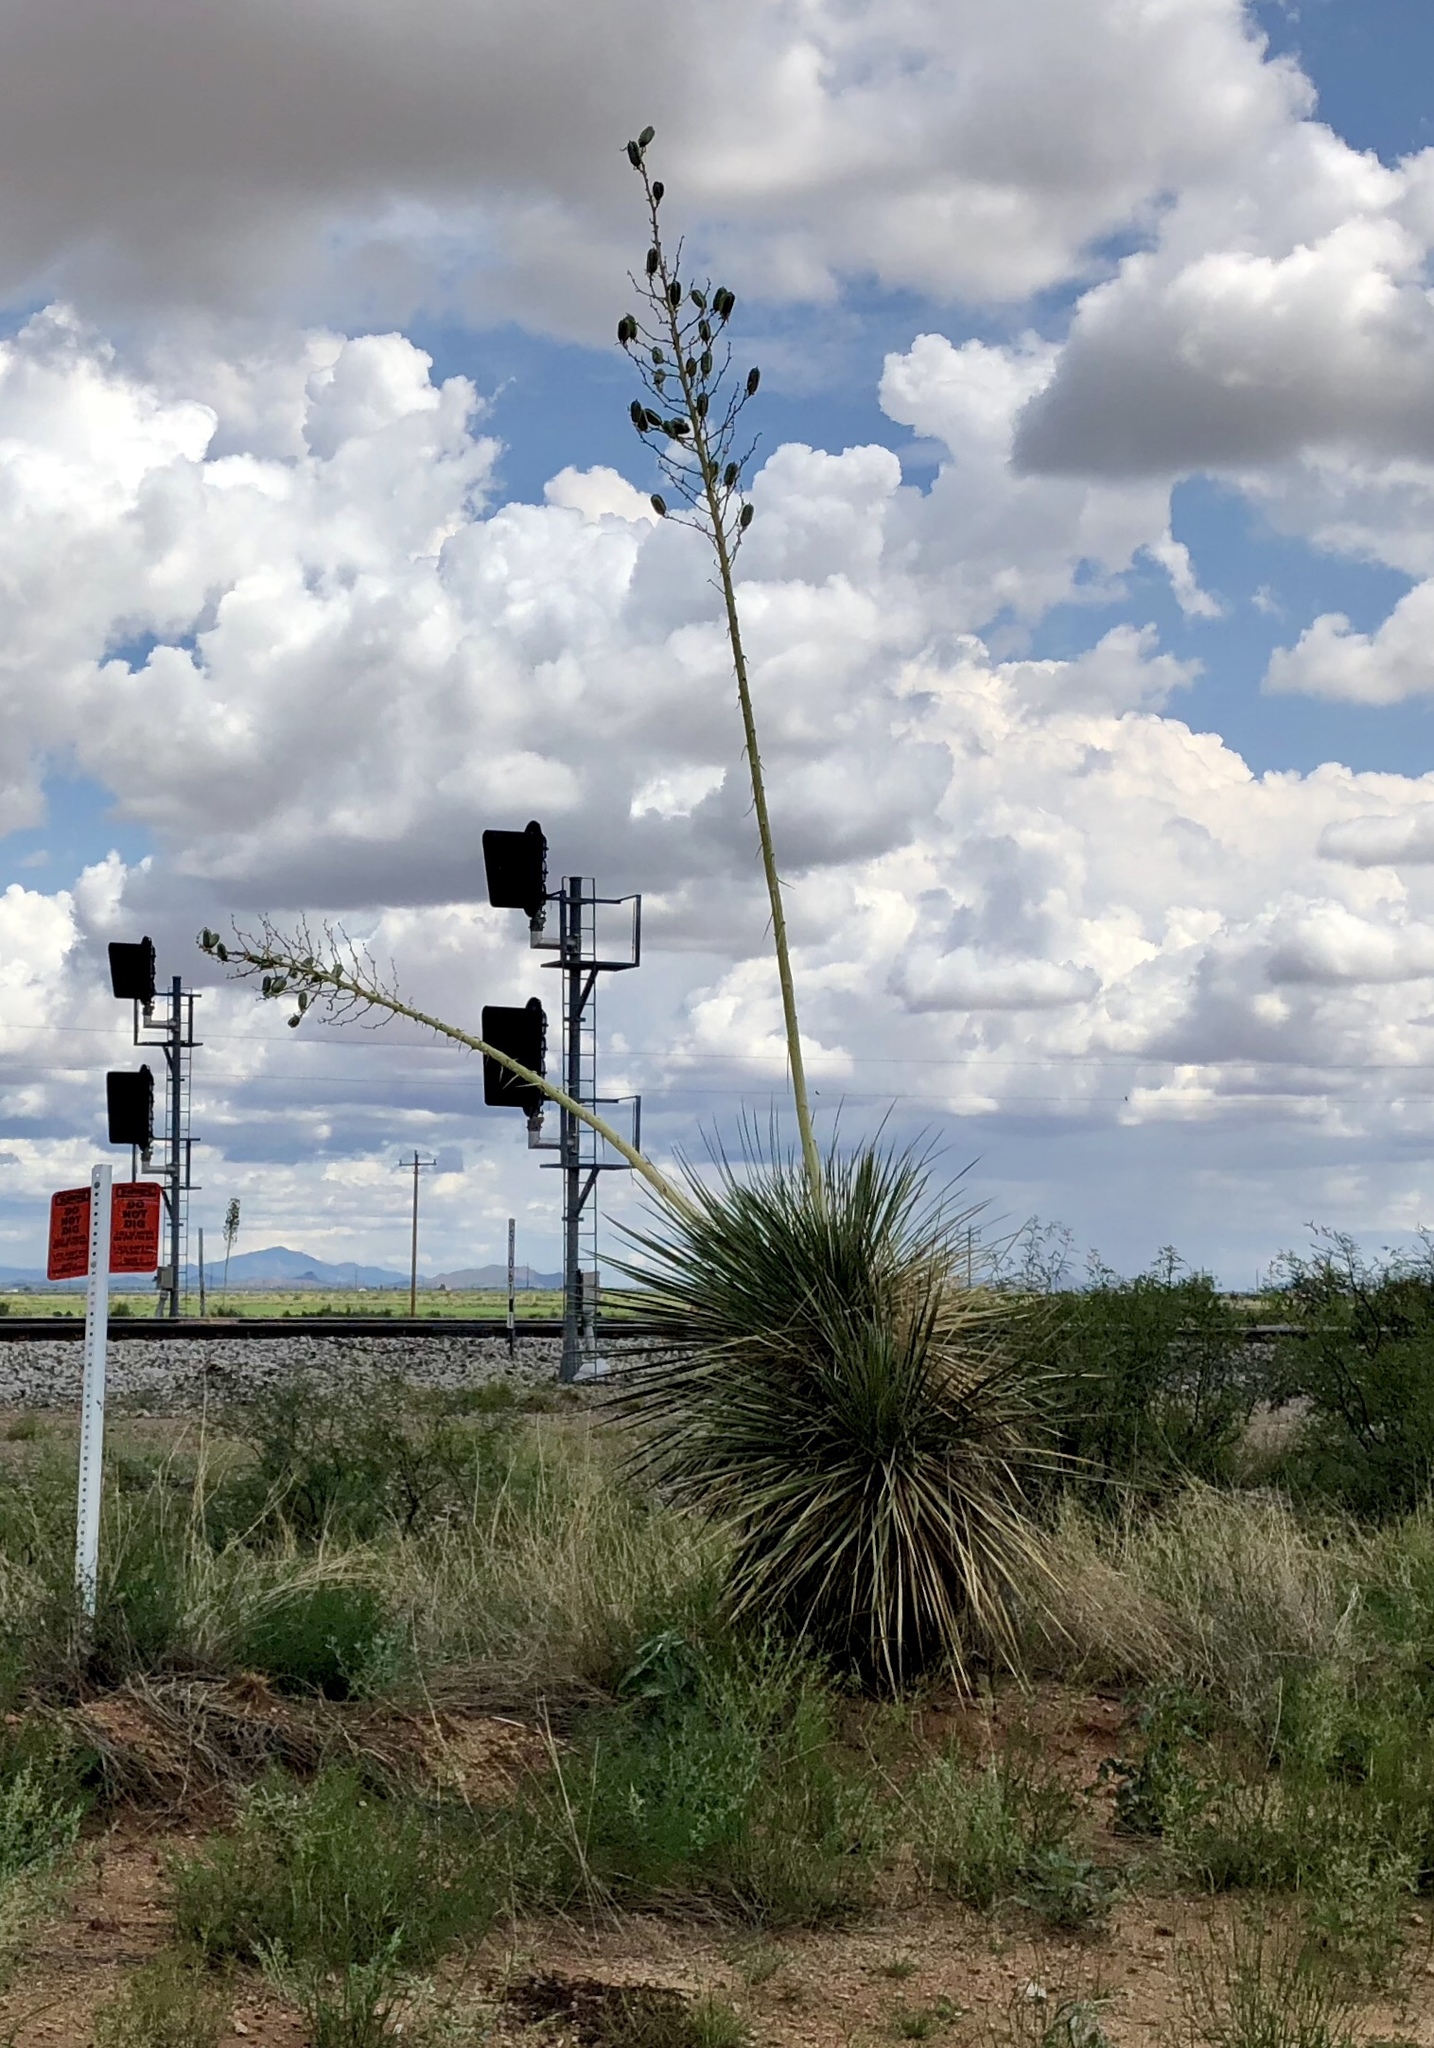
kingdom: Plantae
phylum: Tracheophyta
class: Liliopsida
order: Asparagales
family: Asparagaceae
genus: Yucca
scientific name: Yucca elata
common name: Palmella
